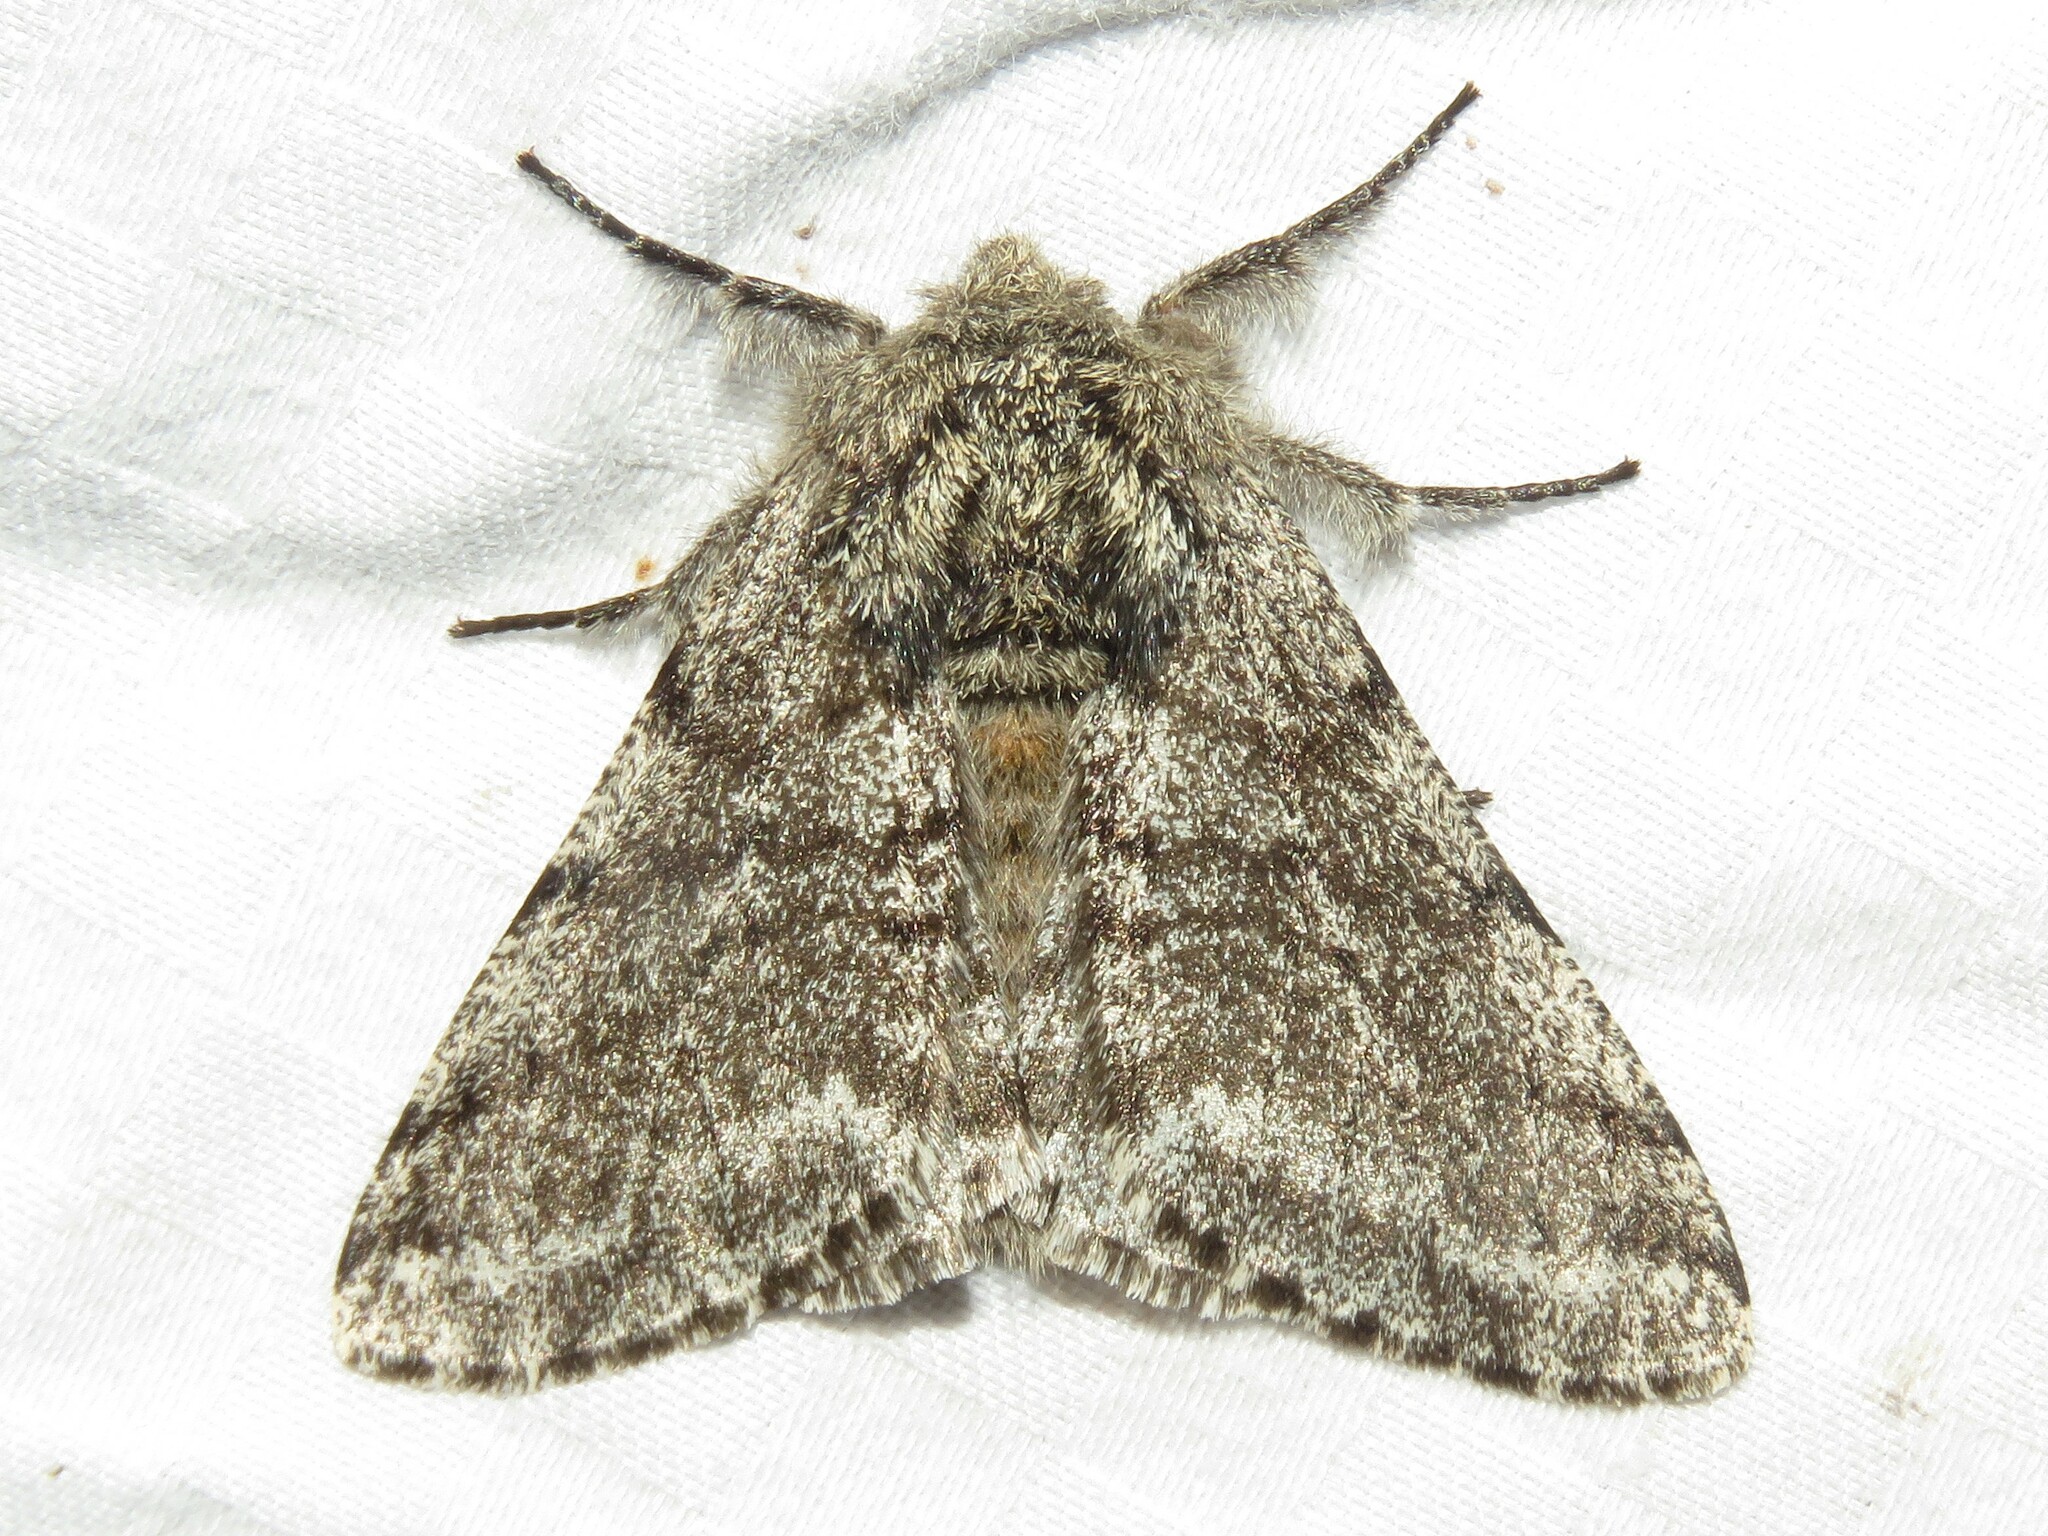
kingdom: Animalia
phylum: Arthropoda
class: Insecta
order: Lepidoptera
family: Geometridae
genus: Lycia
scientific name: Lycia ursaria
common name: Stout spanworm
